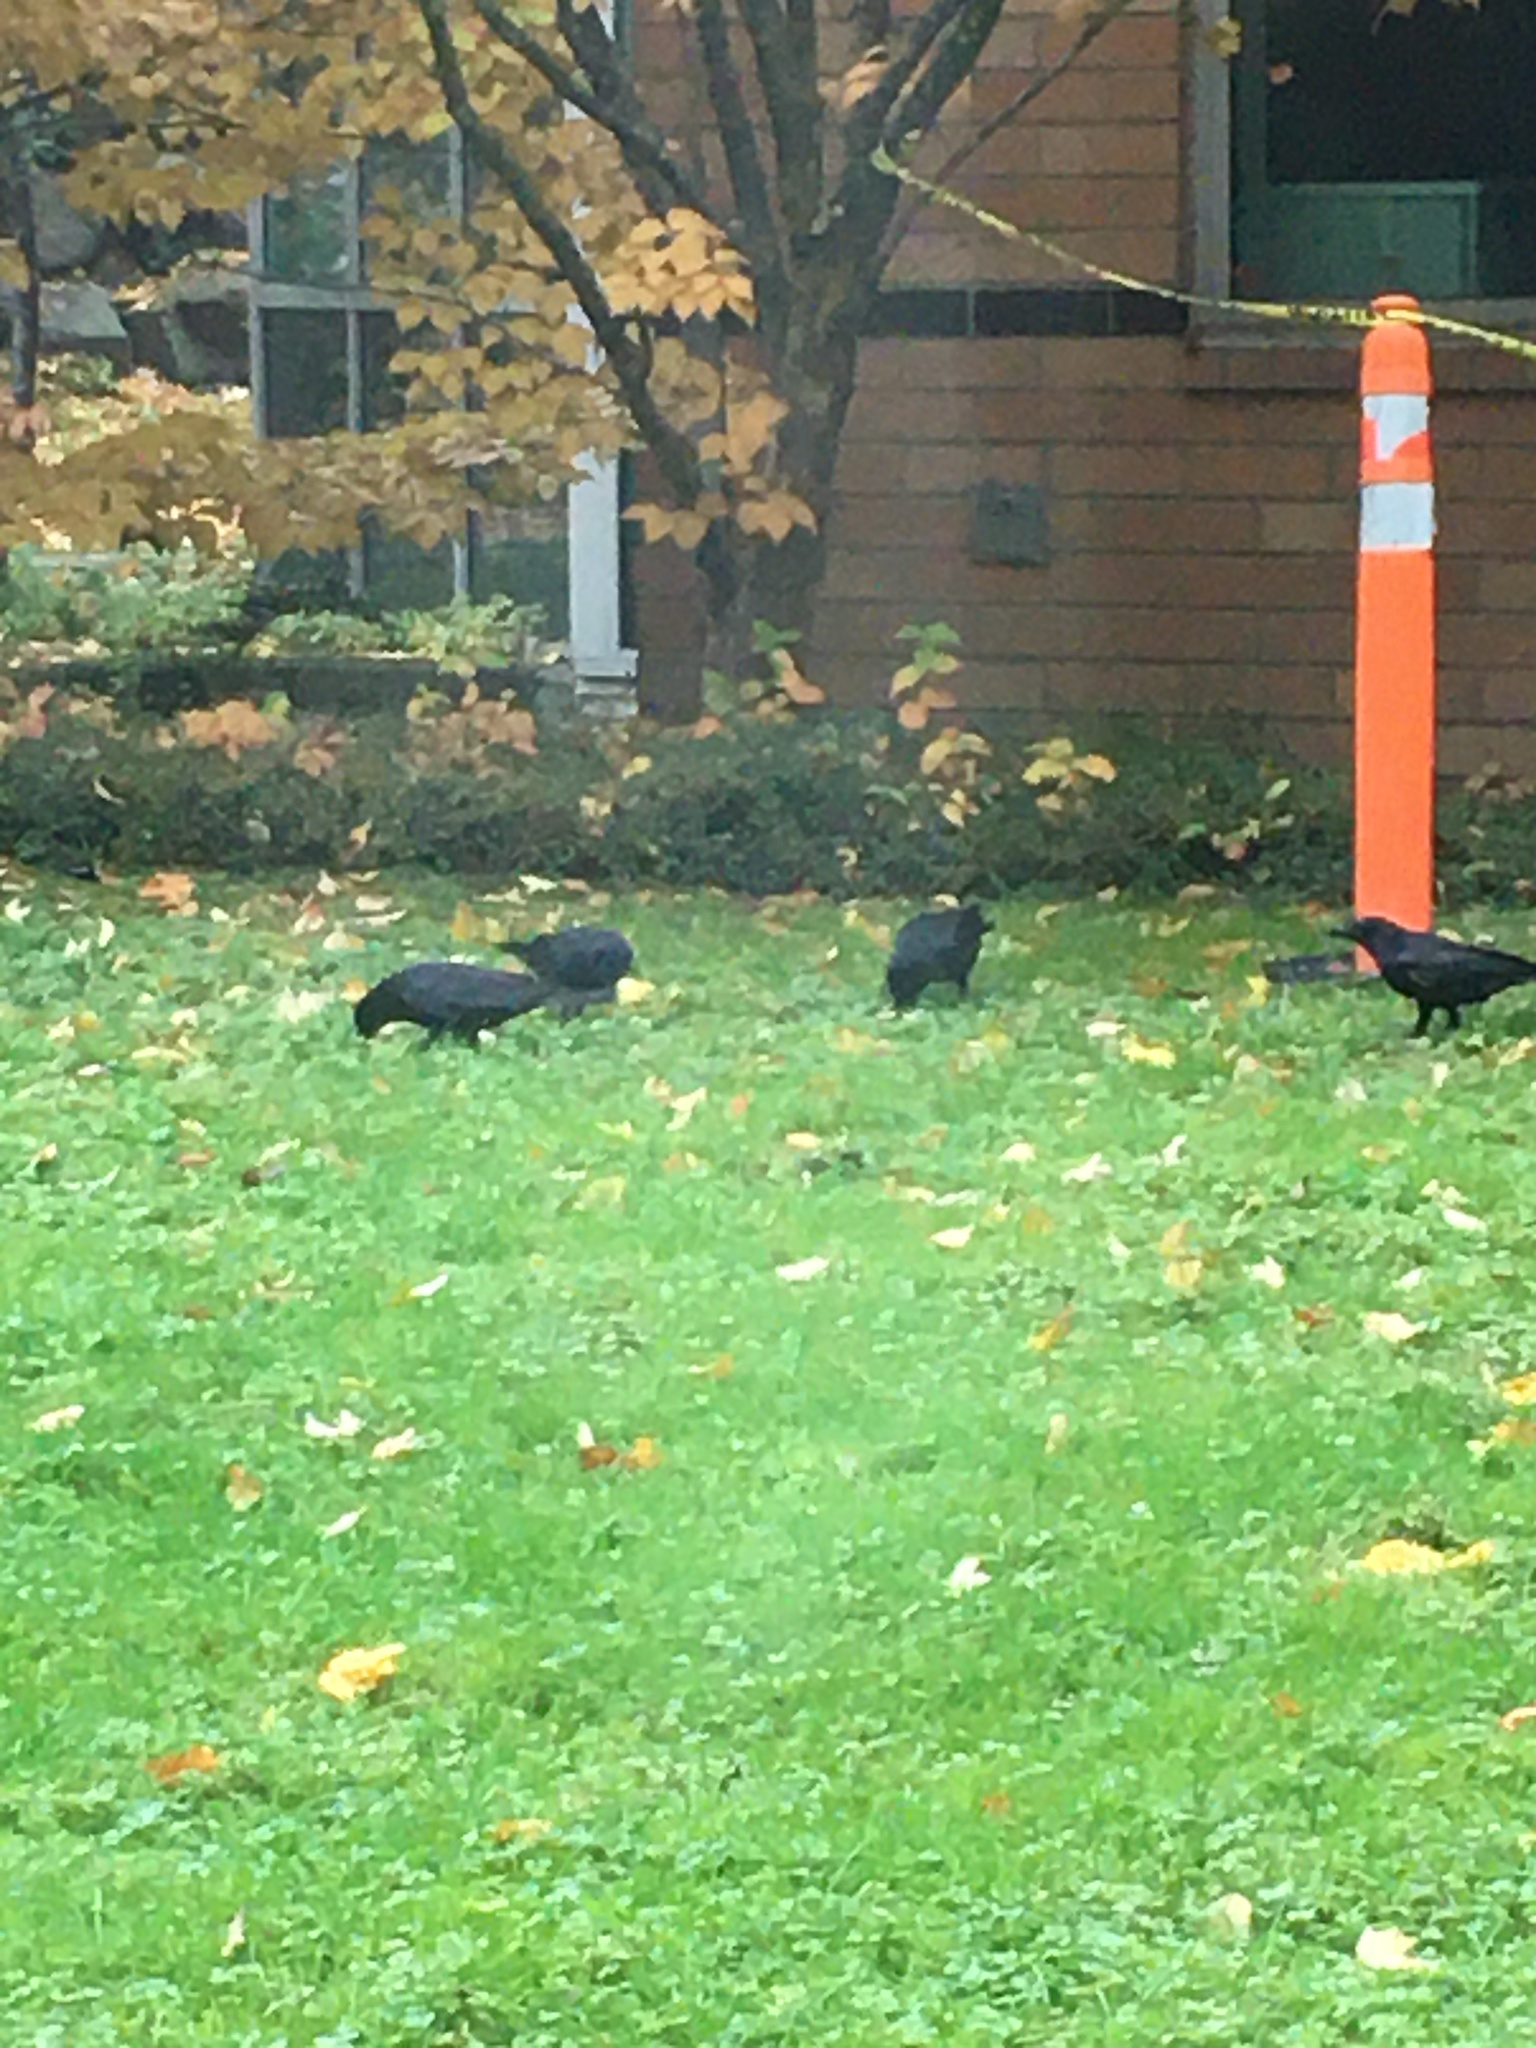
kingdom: Animalia
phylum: Chordata
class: Aves
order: Passeriformes
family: Corvidae
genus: Corvus
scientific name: Corvus brachyrhynchos
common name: American crow
